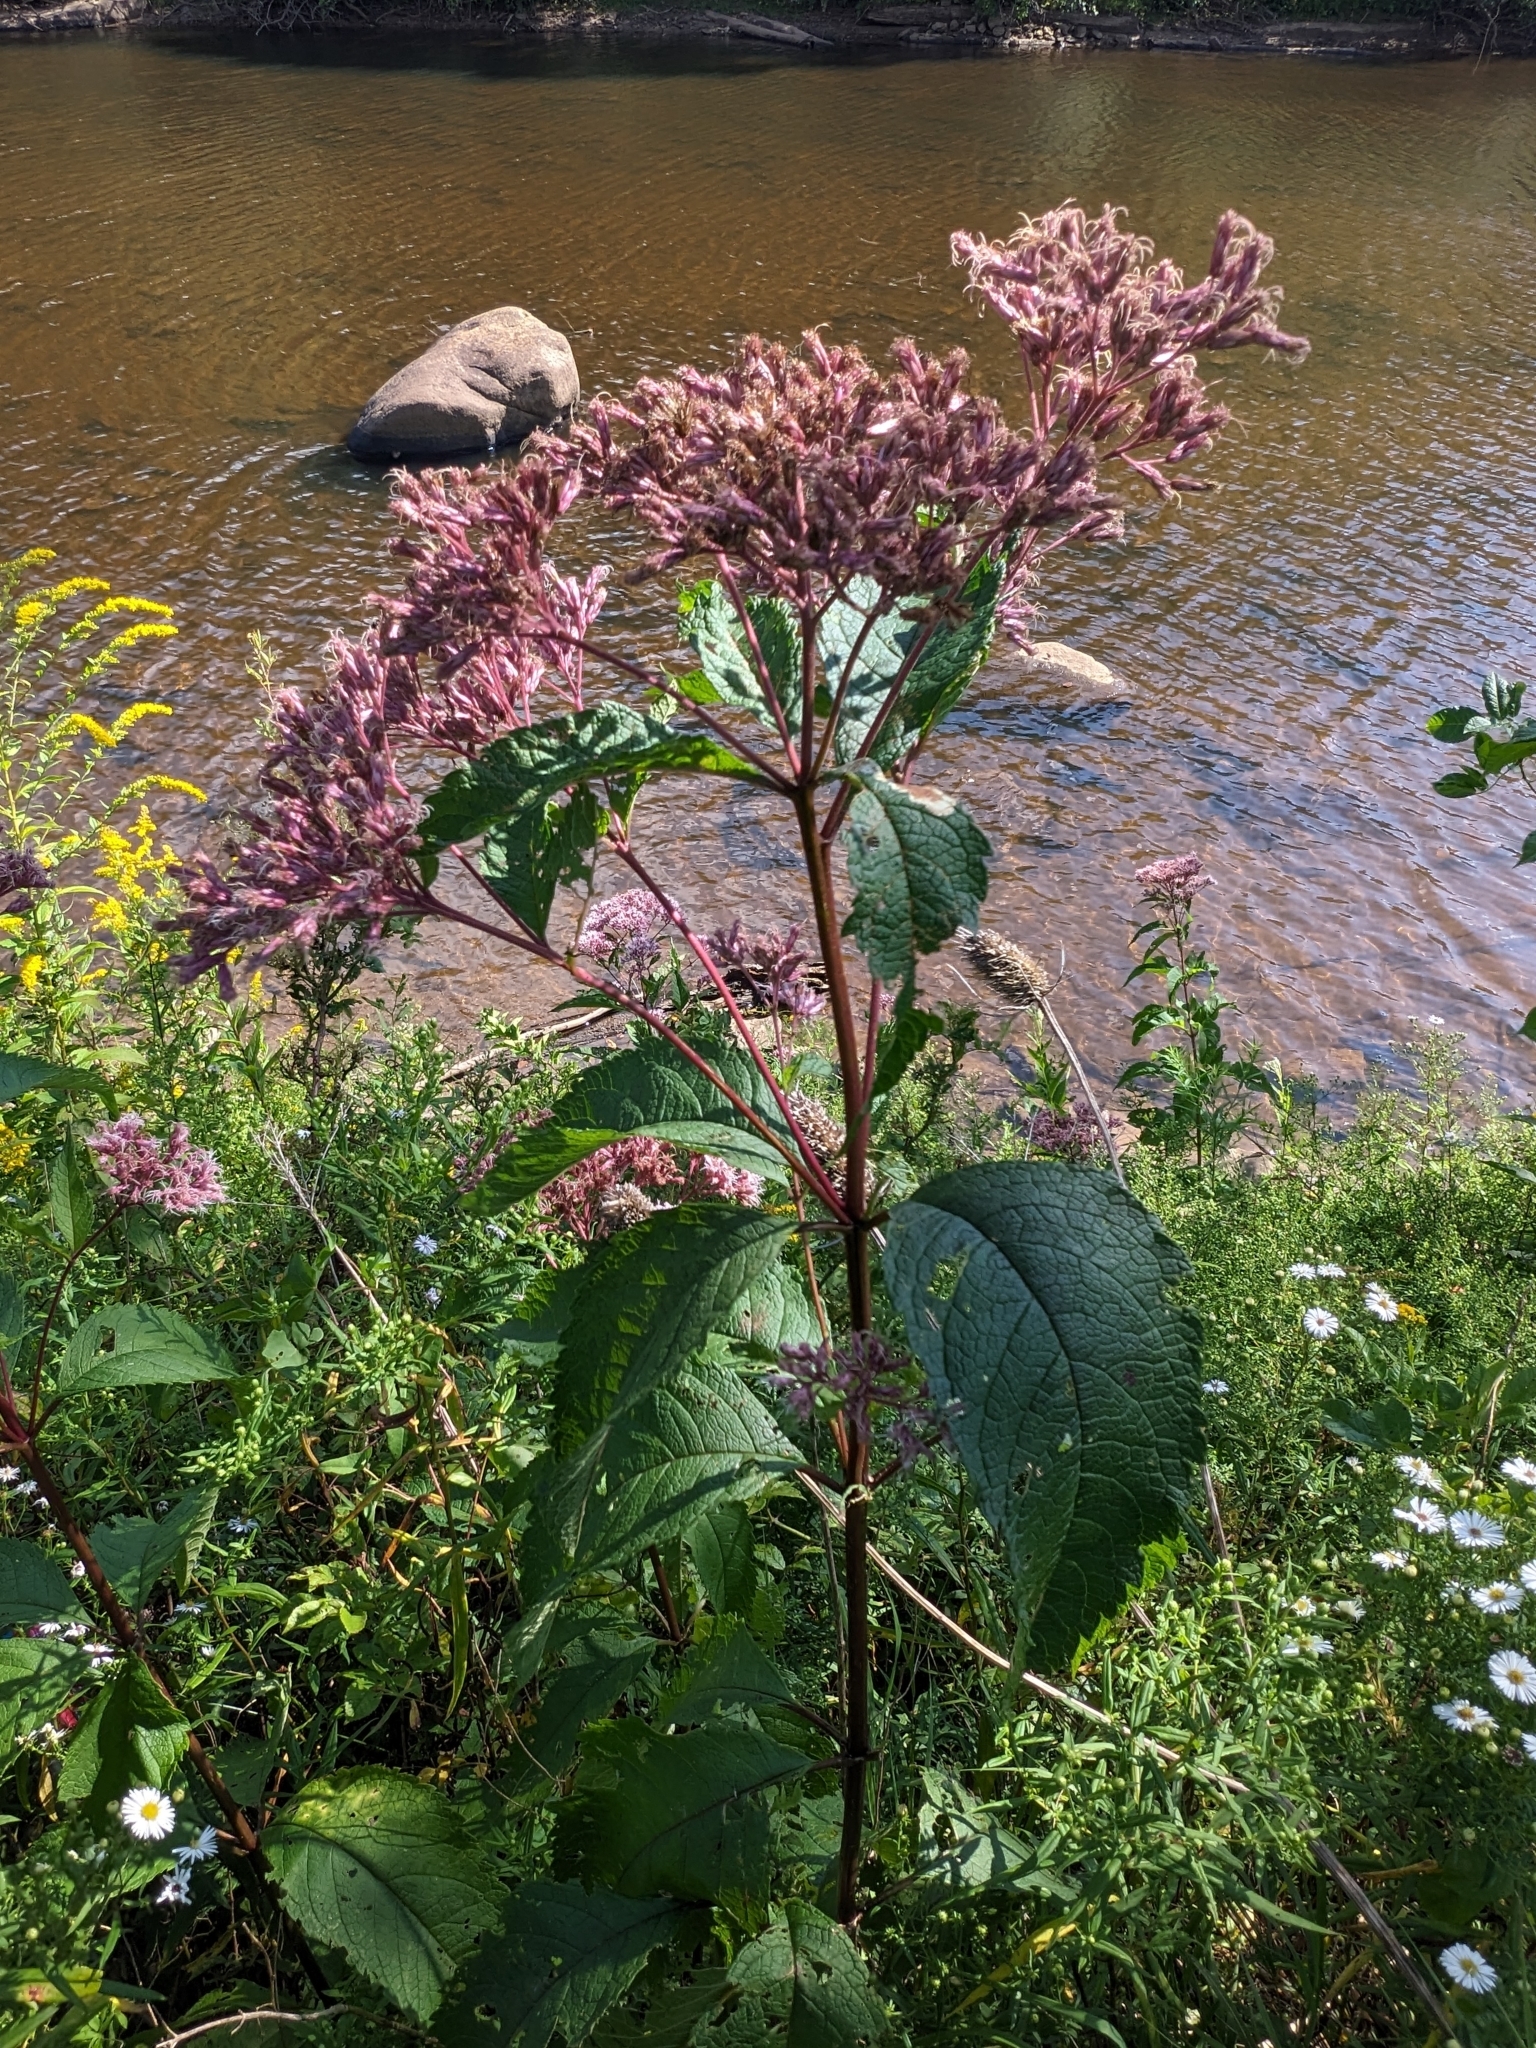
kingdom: Plantae
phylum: Tracheophyta
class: Magnoliopsida
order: Asterales
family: Asteraceae
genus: Eutrochium
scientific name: Eutrochium fistulosum
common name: Trumpetweed
